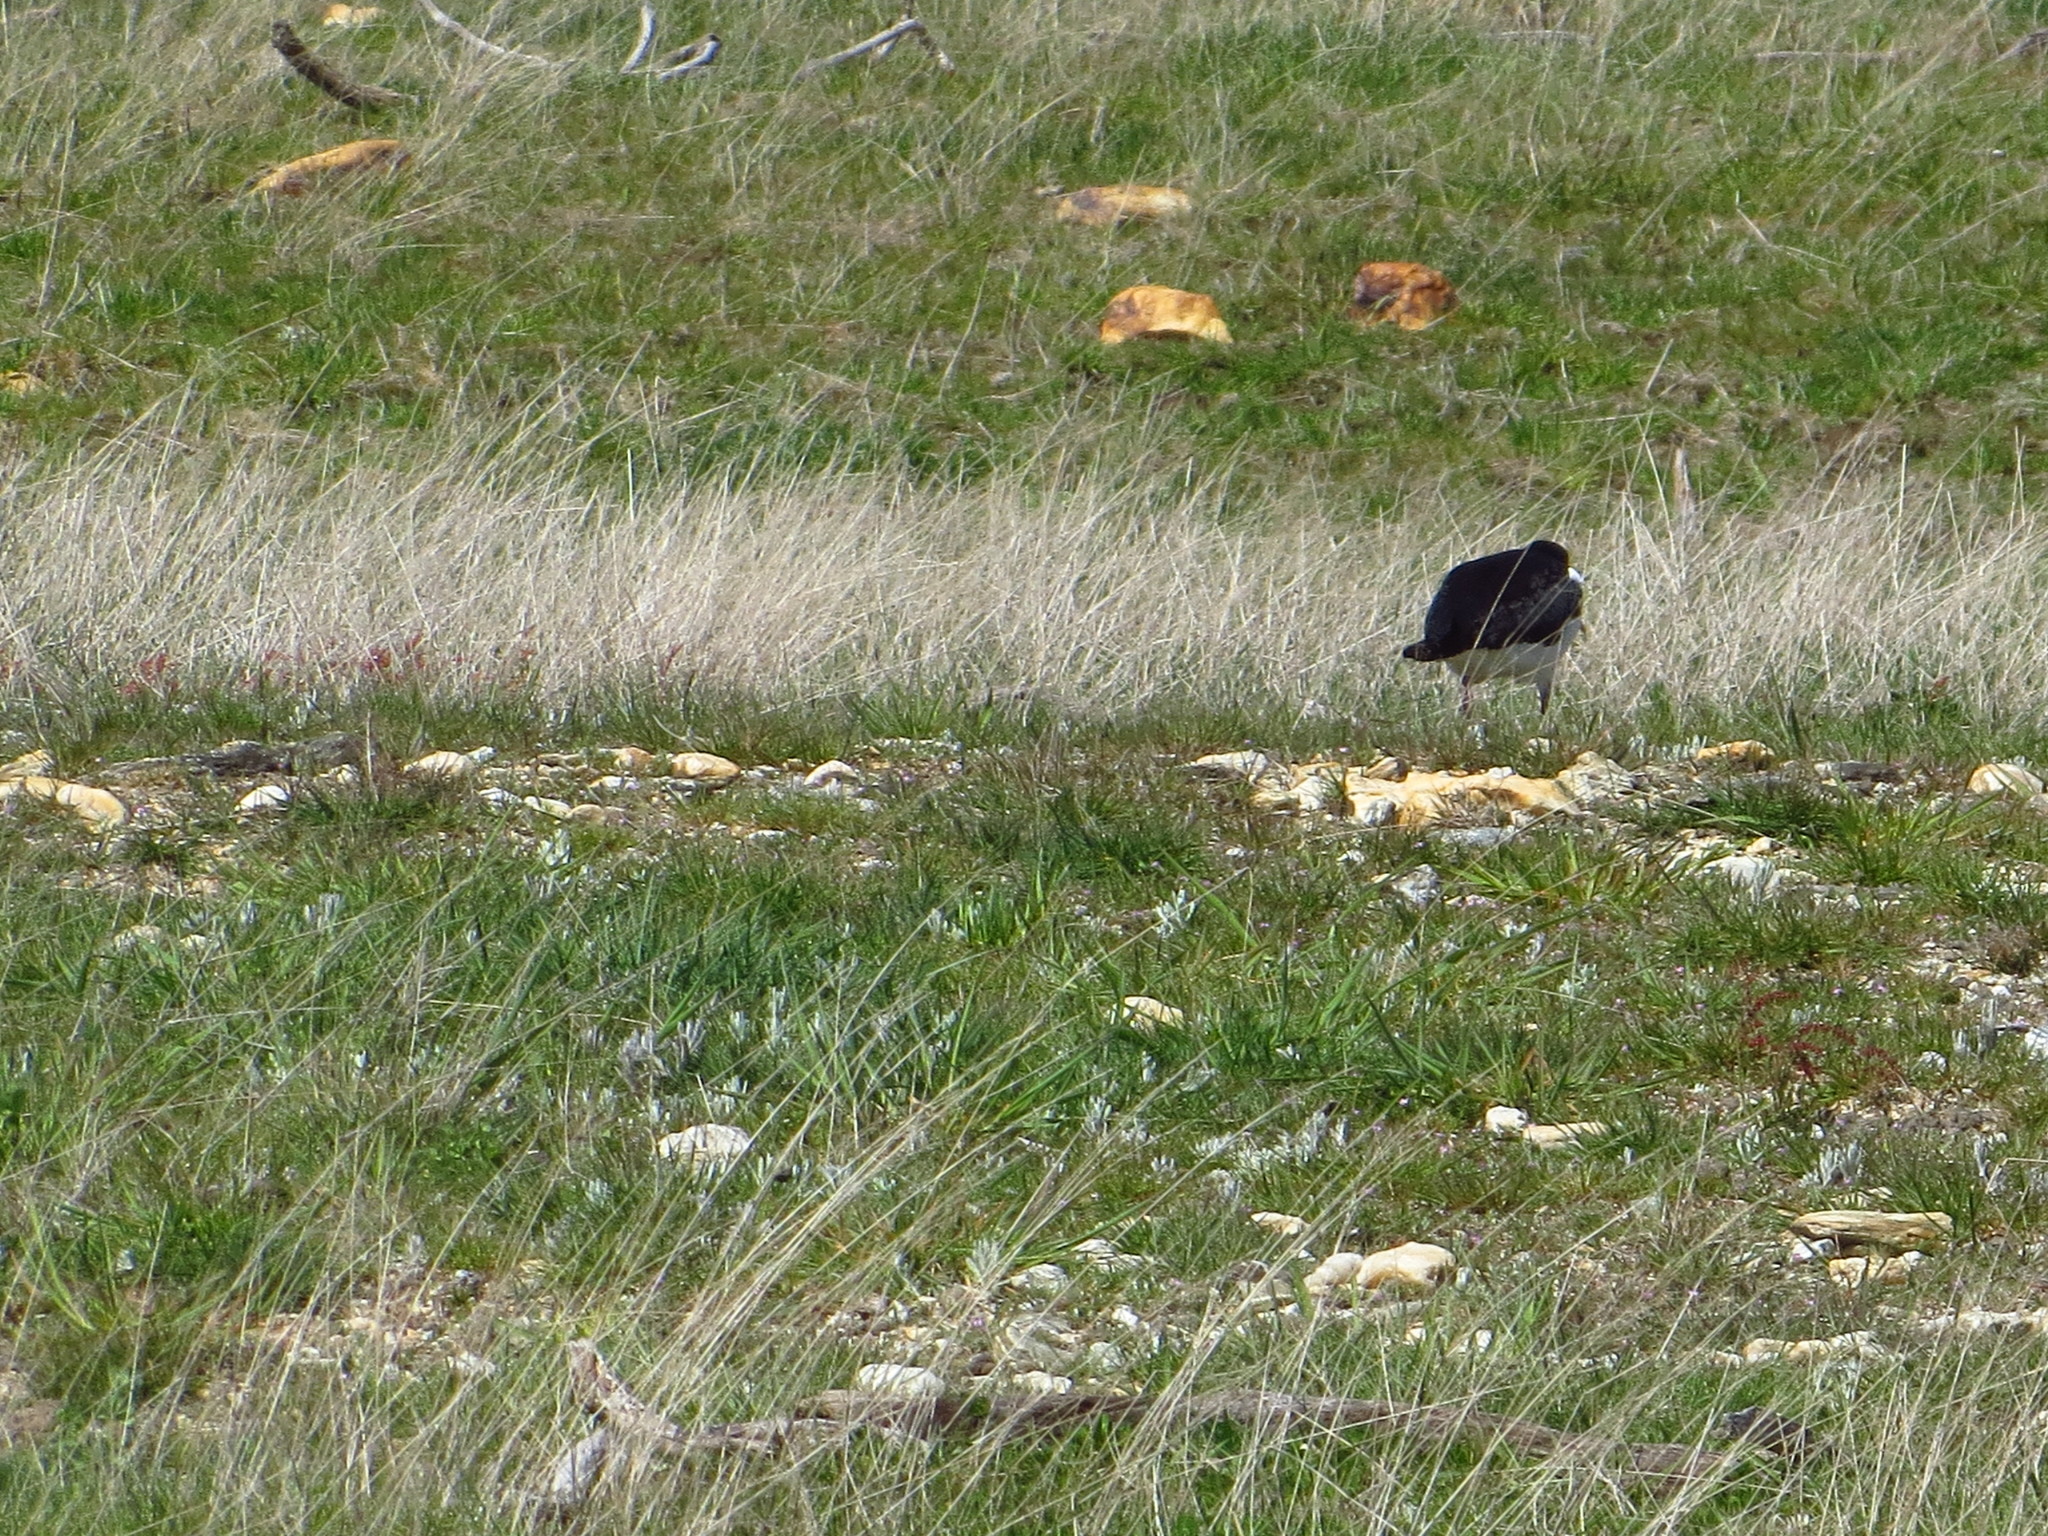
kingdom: Animalia
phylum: Chordata
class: Aves
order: Charadriiformes
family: Haematopodidae
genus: Haematopus
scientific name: Haematopus finschi
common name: South island oystercatcher
